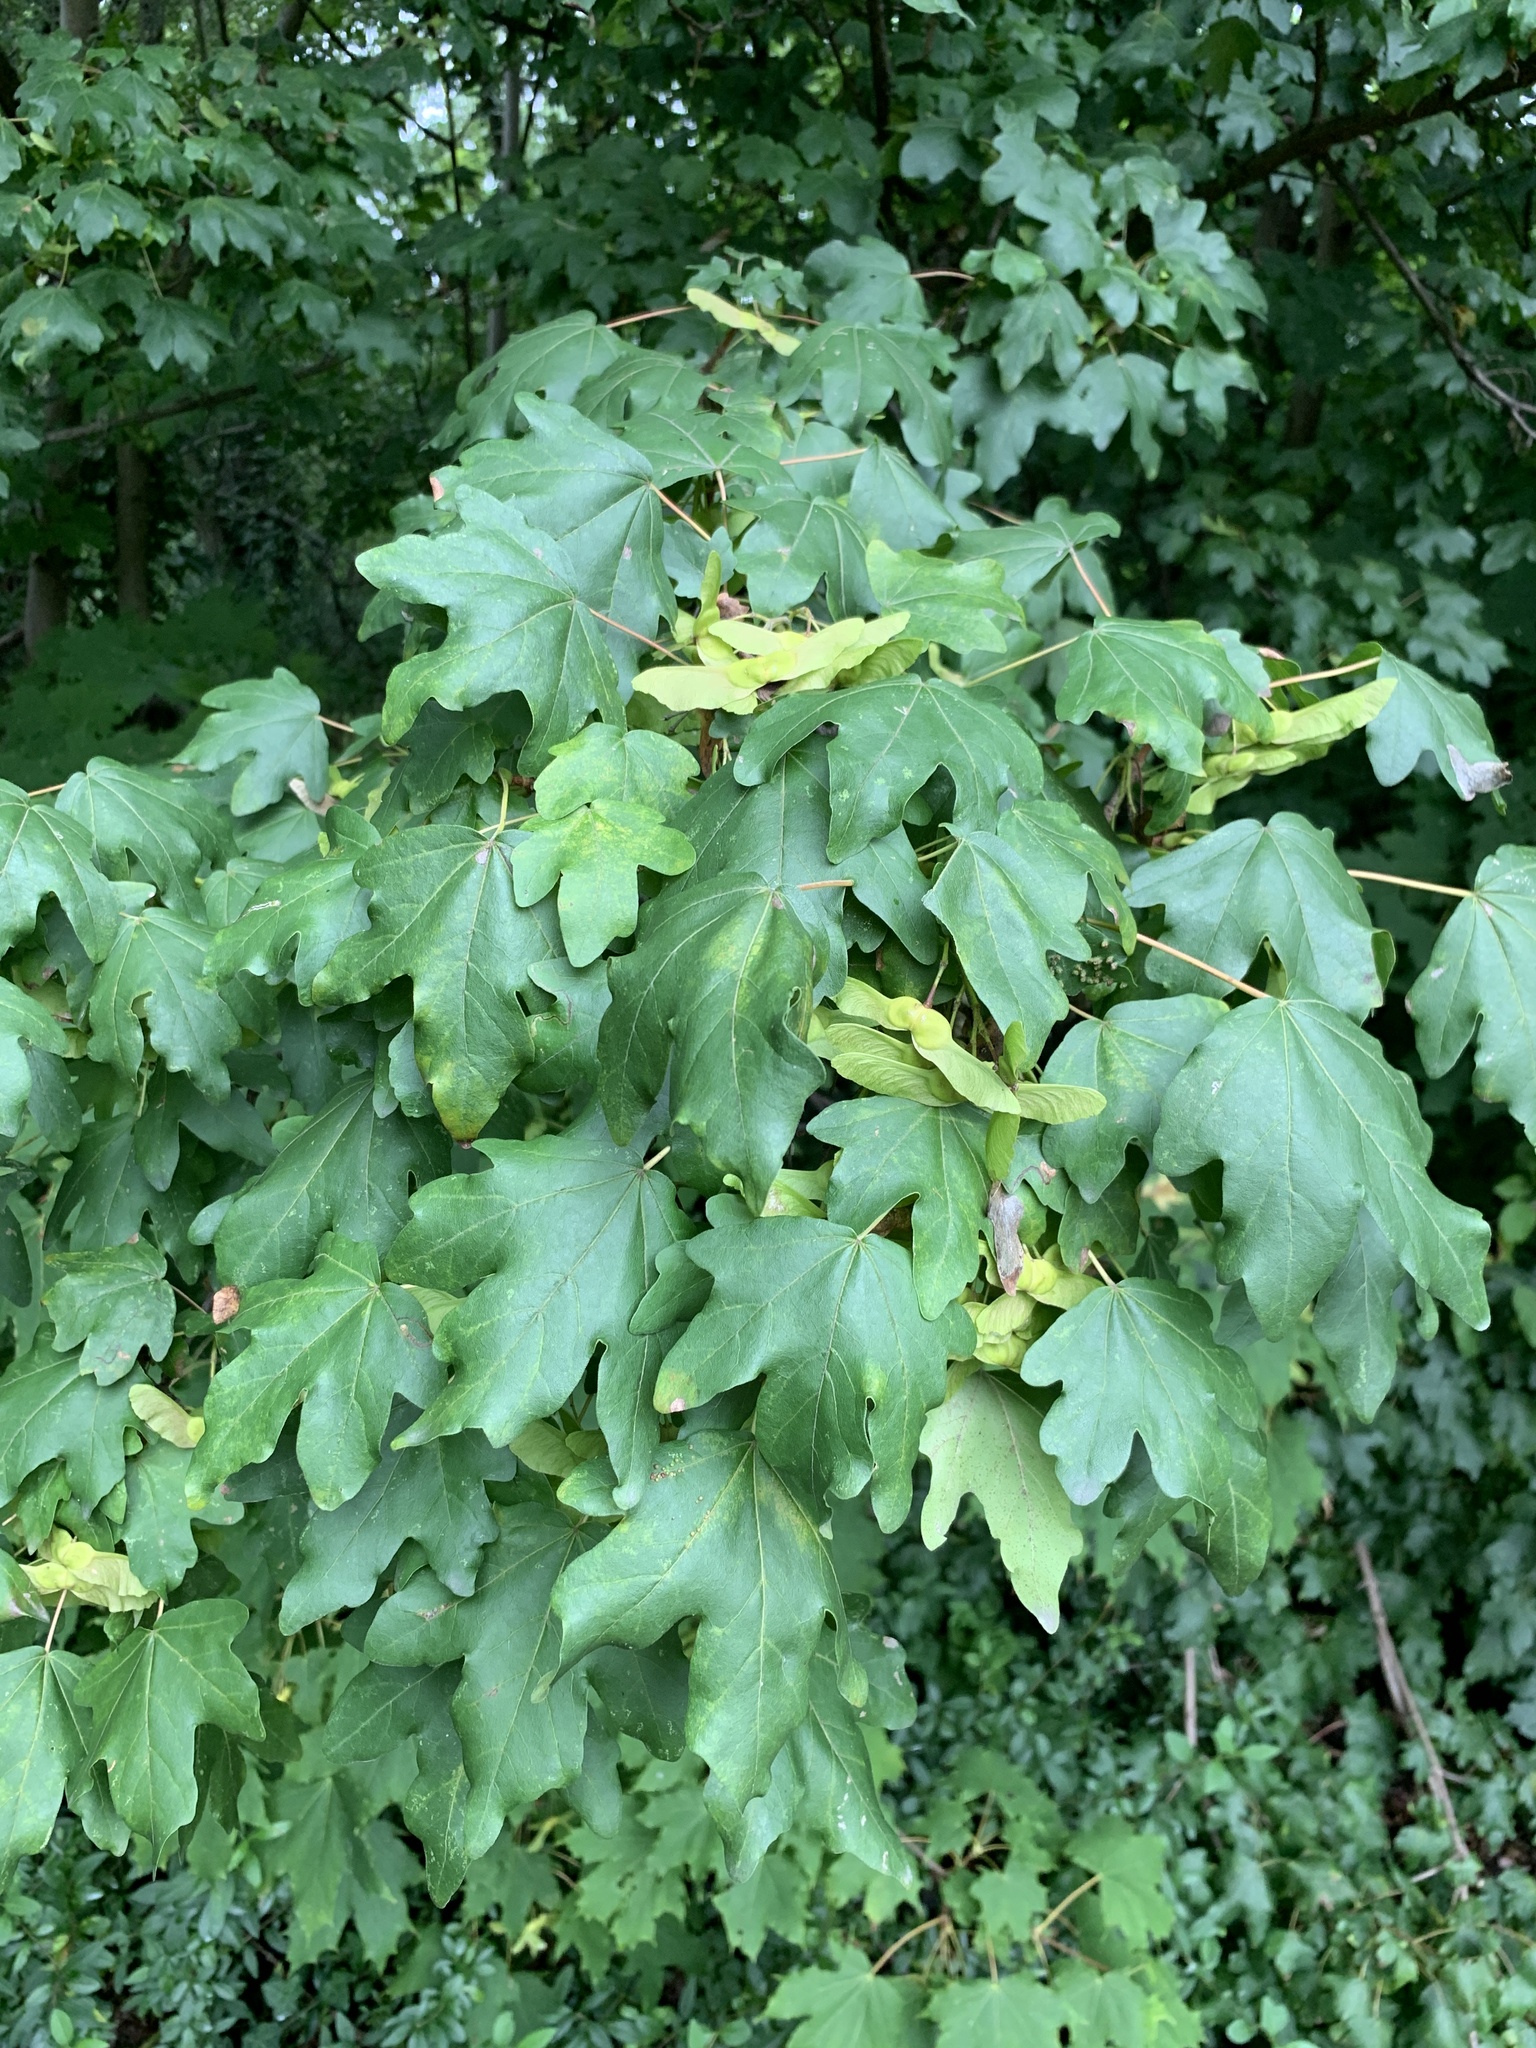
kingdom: Plantae
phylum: Tracheophyta
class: Magnoliopsida
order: Sapindales
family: Sapindaceae
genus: Acer
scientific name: Acer campestre
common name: Field maple
